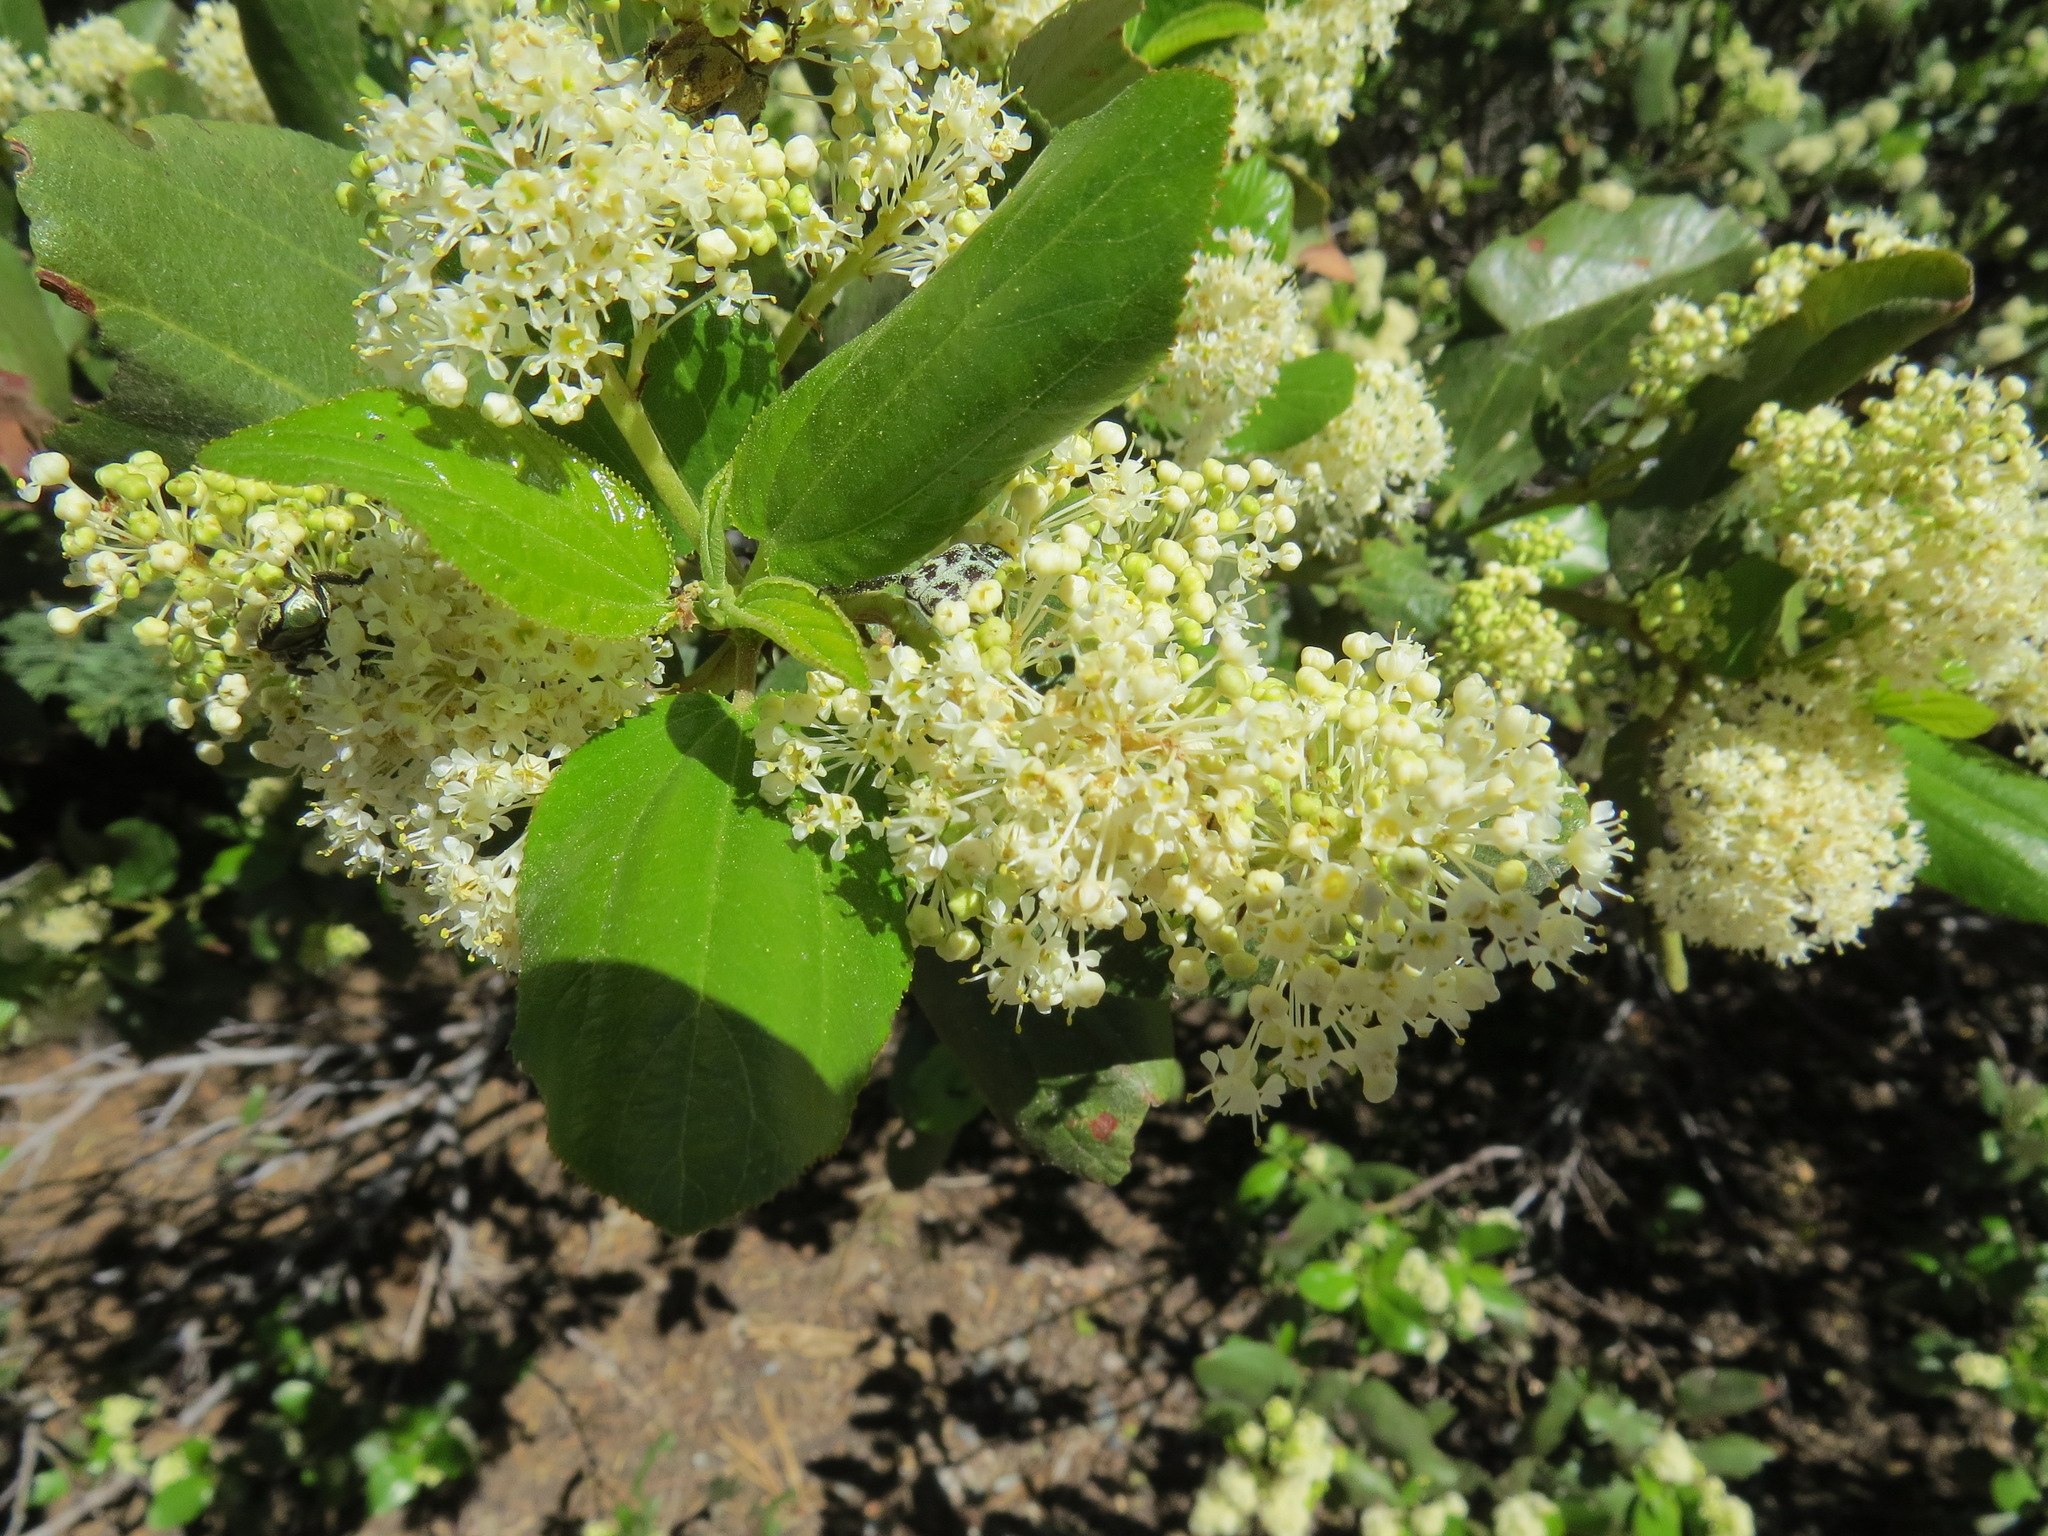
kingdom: Plantae
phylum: Tracheophyta
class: Magnoliopsida
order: Rosales
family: Rhamnaceae
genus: Ceanothus
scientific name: Ceanothus velutinus
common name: Snowbrush
